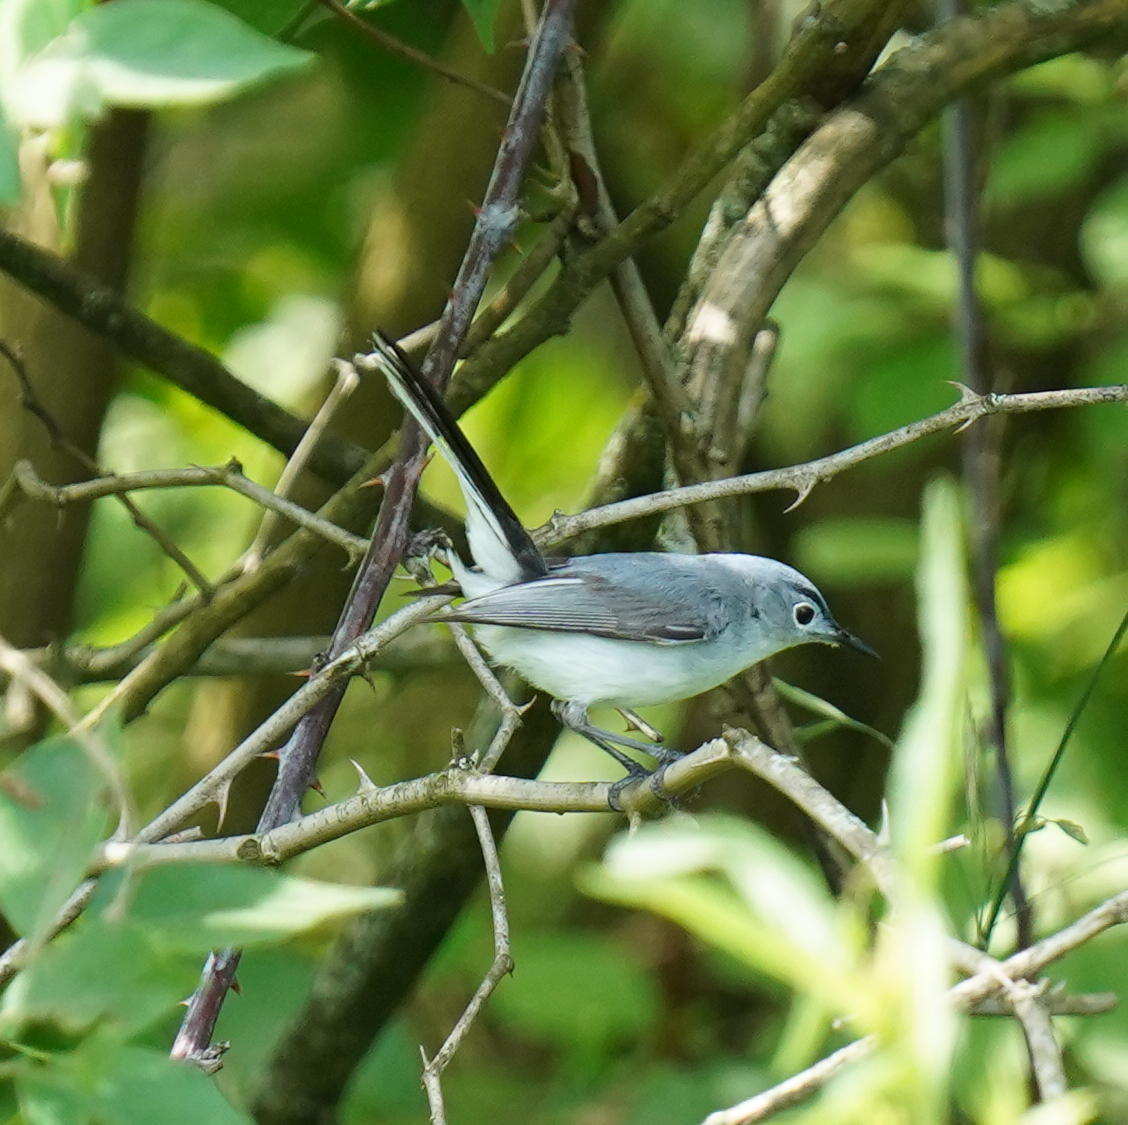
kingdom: Animalia
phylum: Chordata
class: Aves
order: Passeriformes
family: Polioptilidae
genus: Polioptila
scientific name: Polioptila caerulea
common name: Blue-gray gnatcatcher
